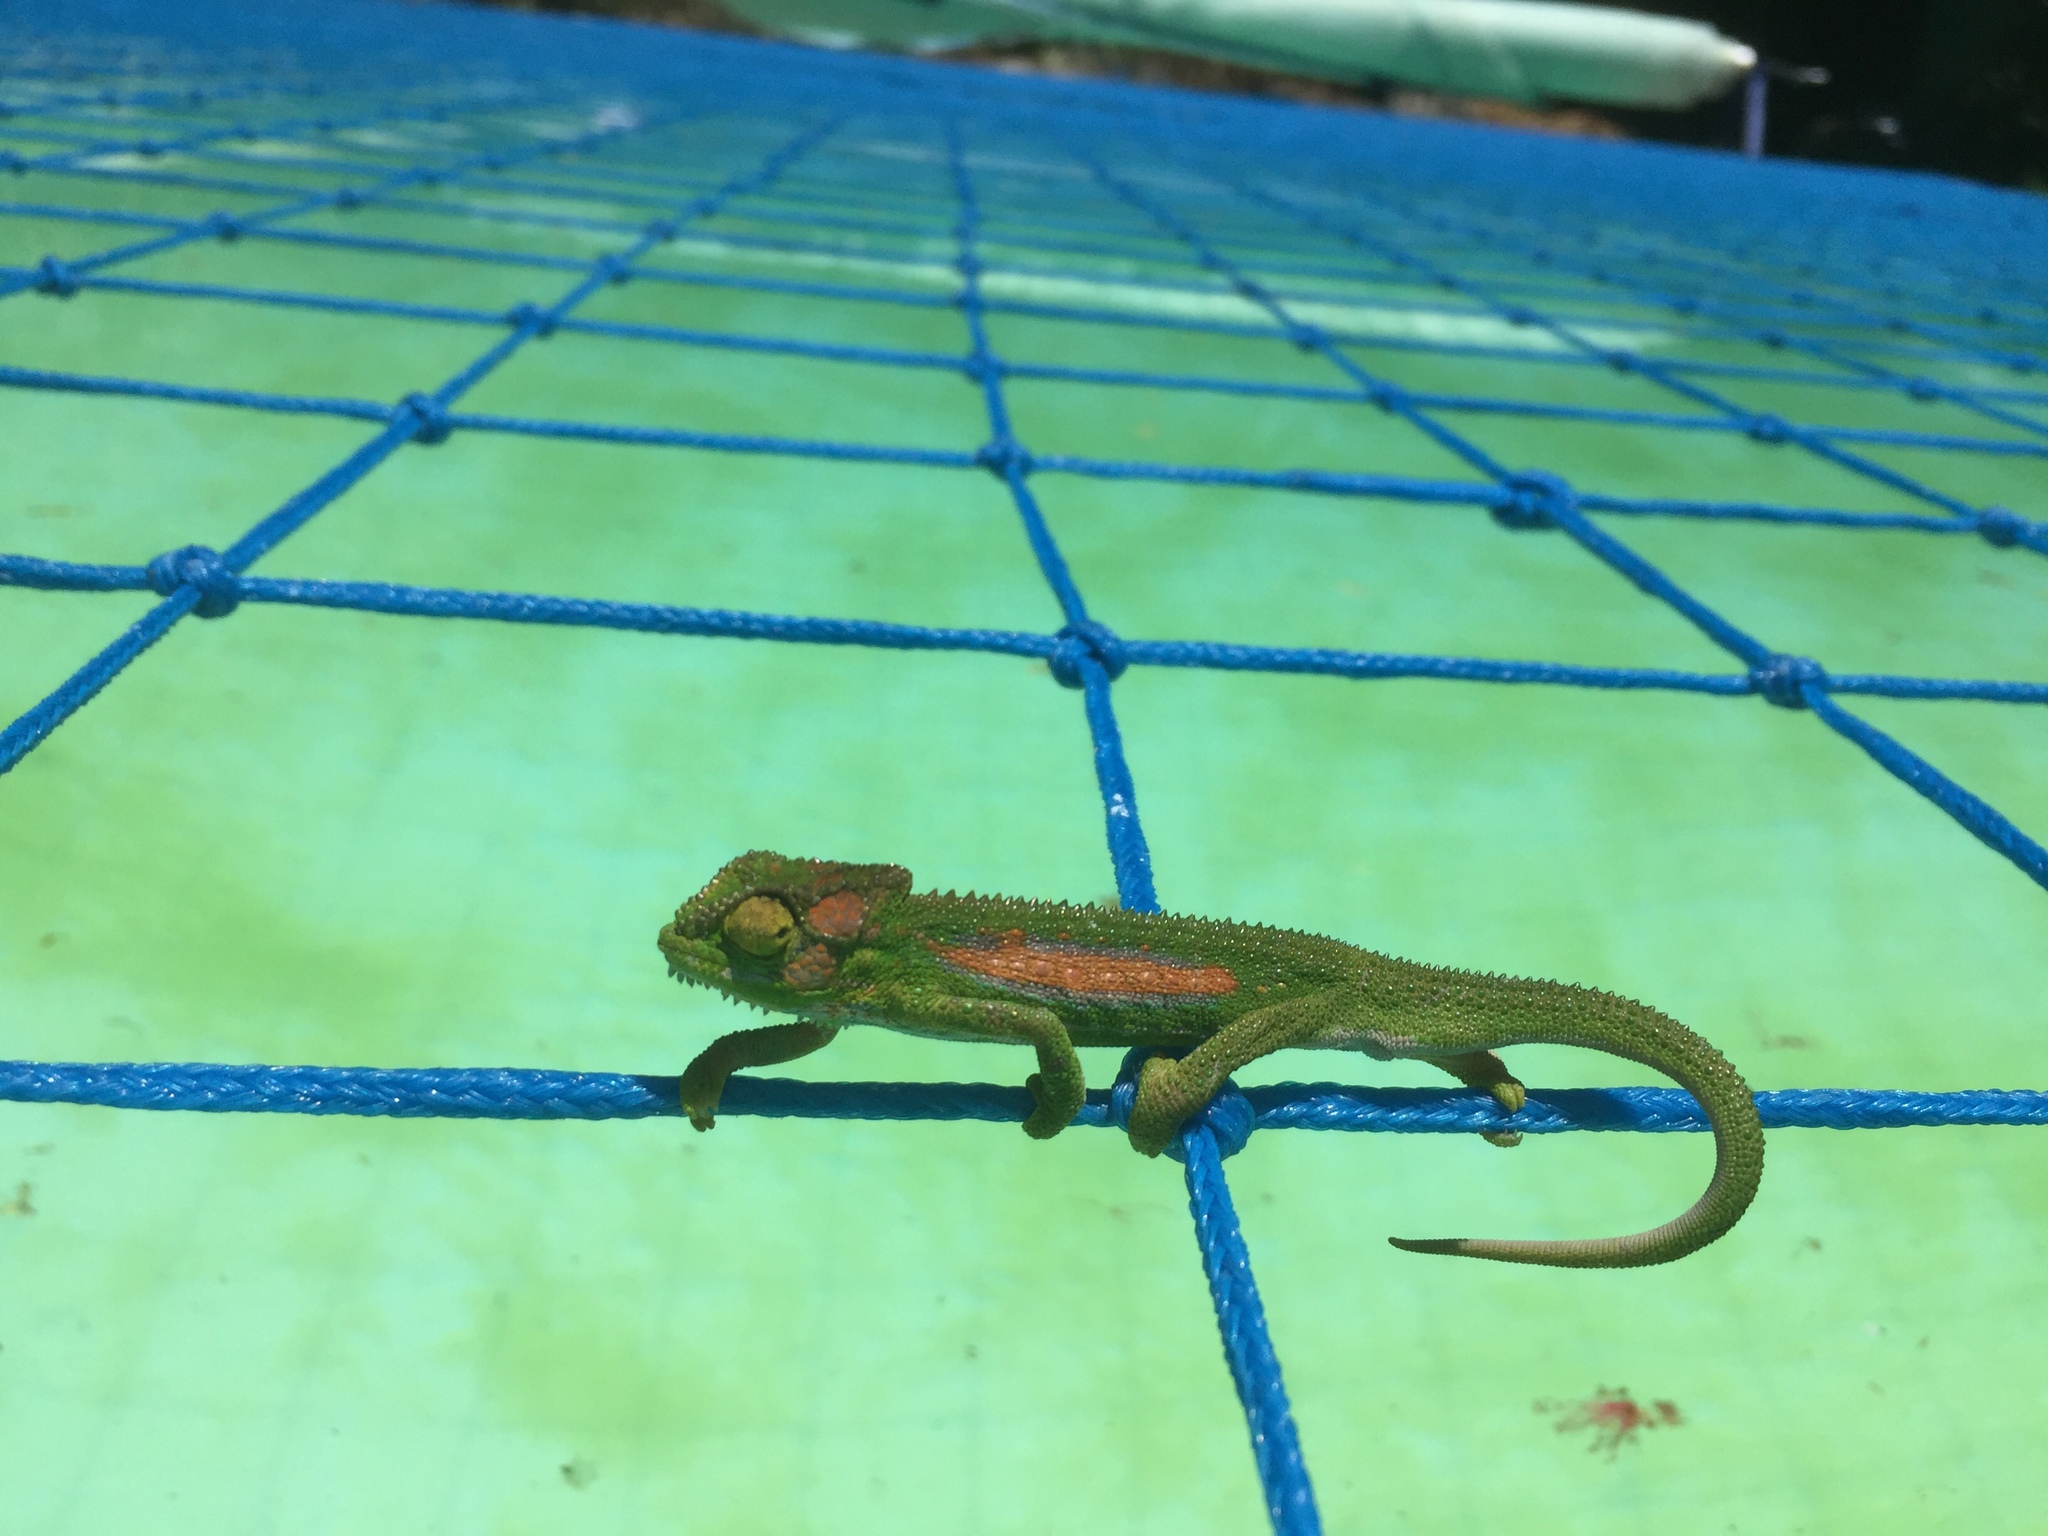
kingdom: Animalia
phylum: Chordata
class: Squamata
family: Chamaeleonidae
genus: Bradypodion
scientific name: Bradypodion pumilum
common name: Cape dwarf chameleon
